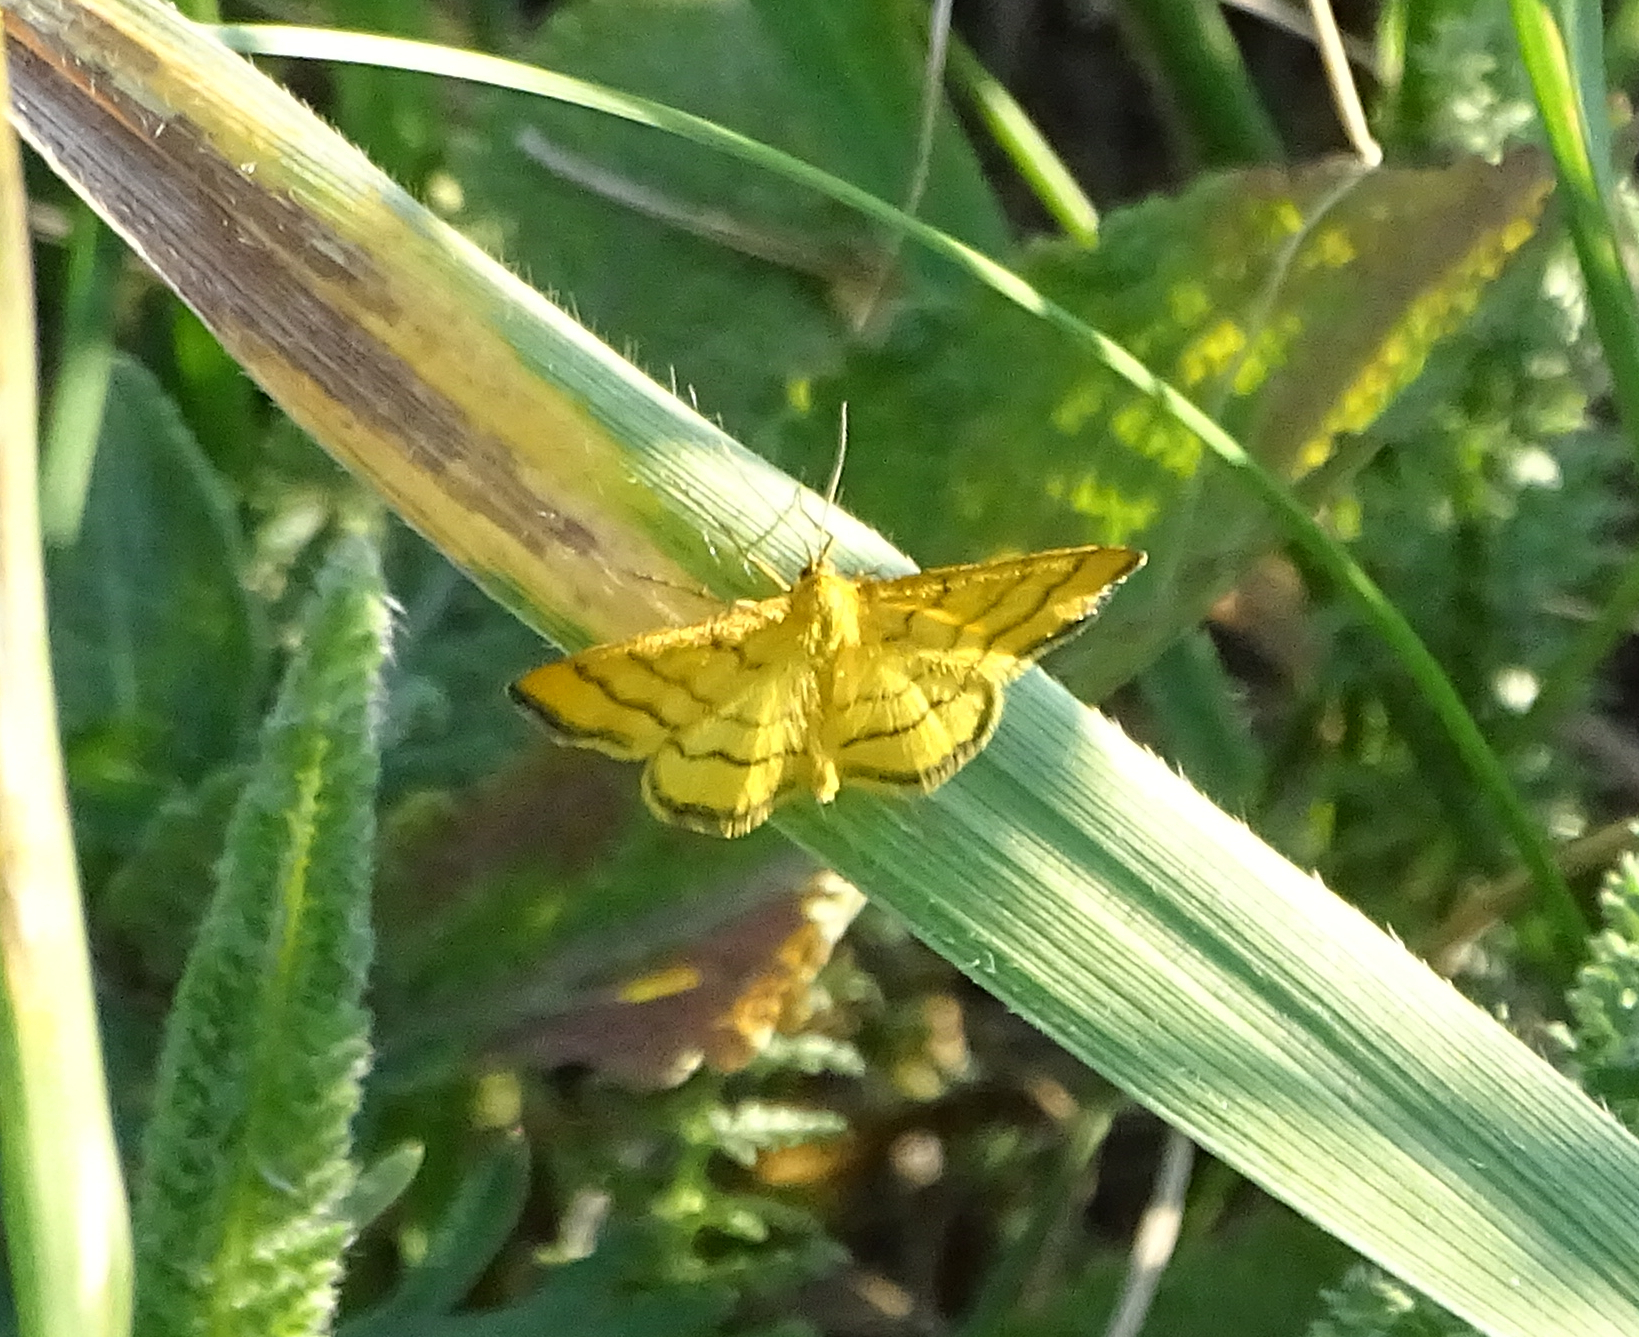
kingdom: Animalia
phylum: Arthropoda
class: Insecta
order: Lepidoptera
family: Geometridae
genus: Idaea
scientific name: Idaea aureolaria
